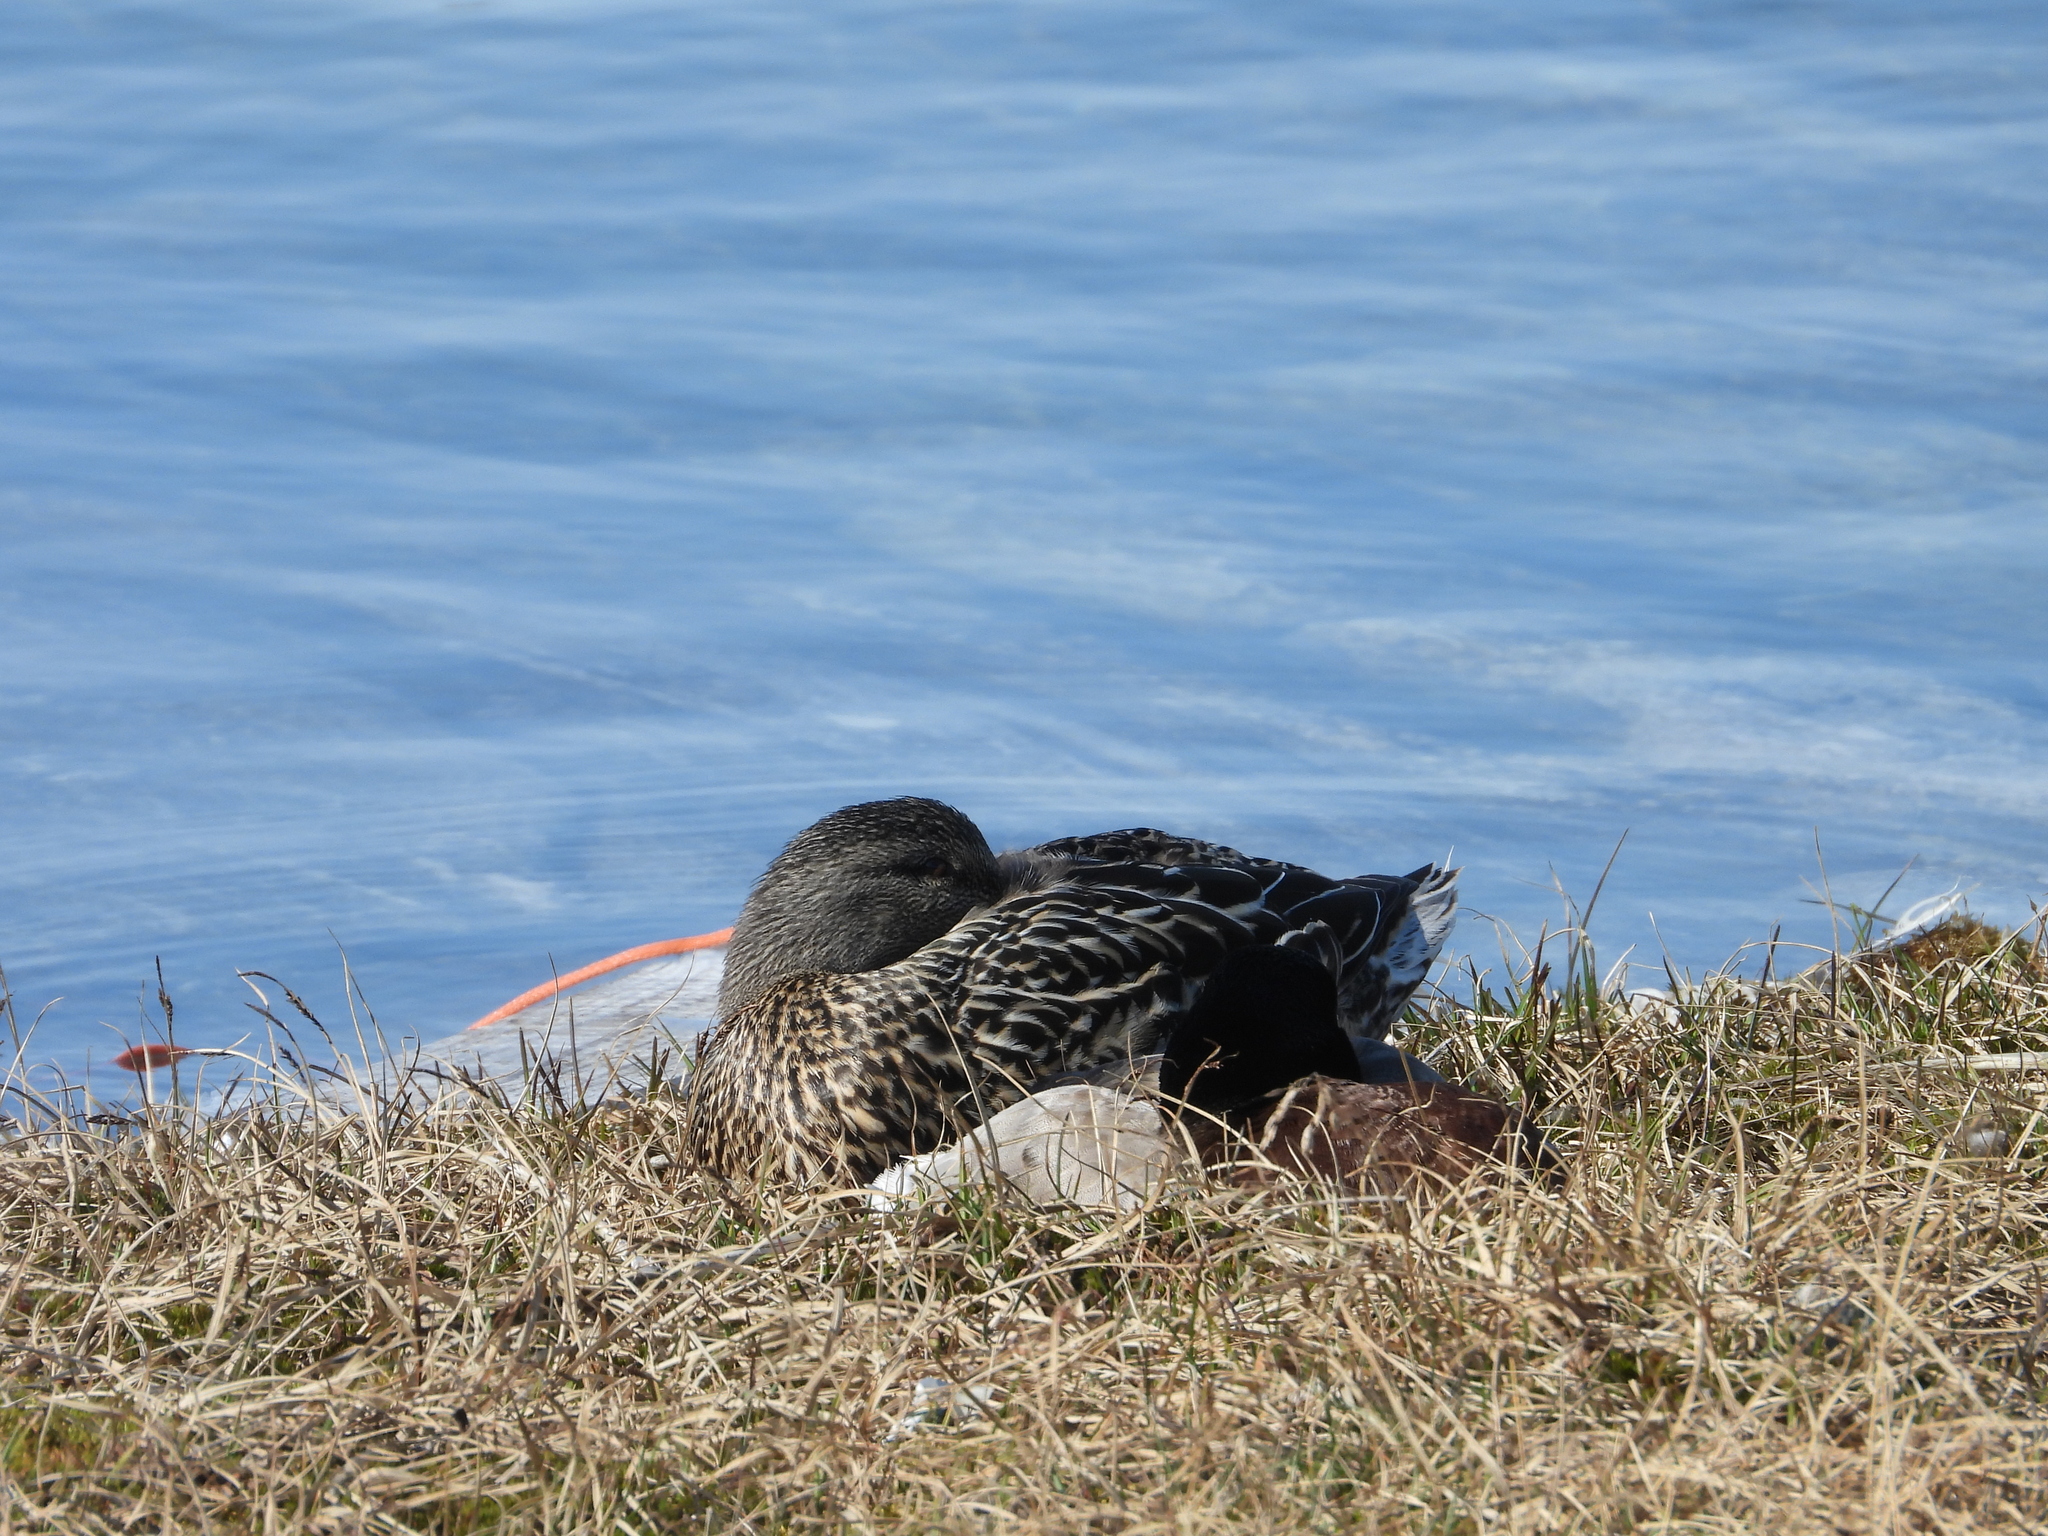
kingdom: Animalia
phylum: Chordata
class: Aves
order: Anseriformes
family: Anatidae
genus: Anas
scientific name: Anas platyrhynchos
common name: Mallard
